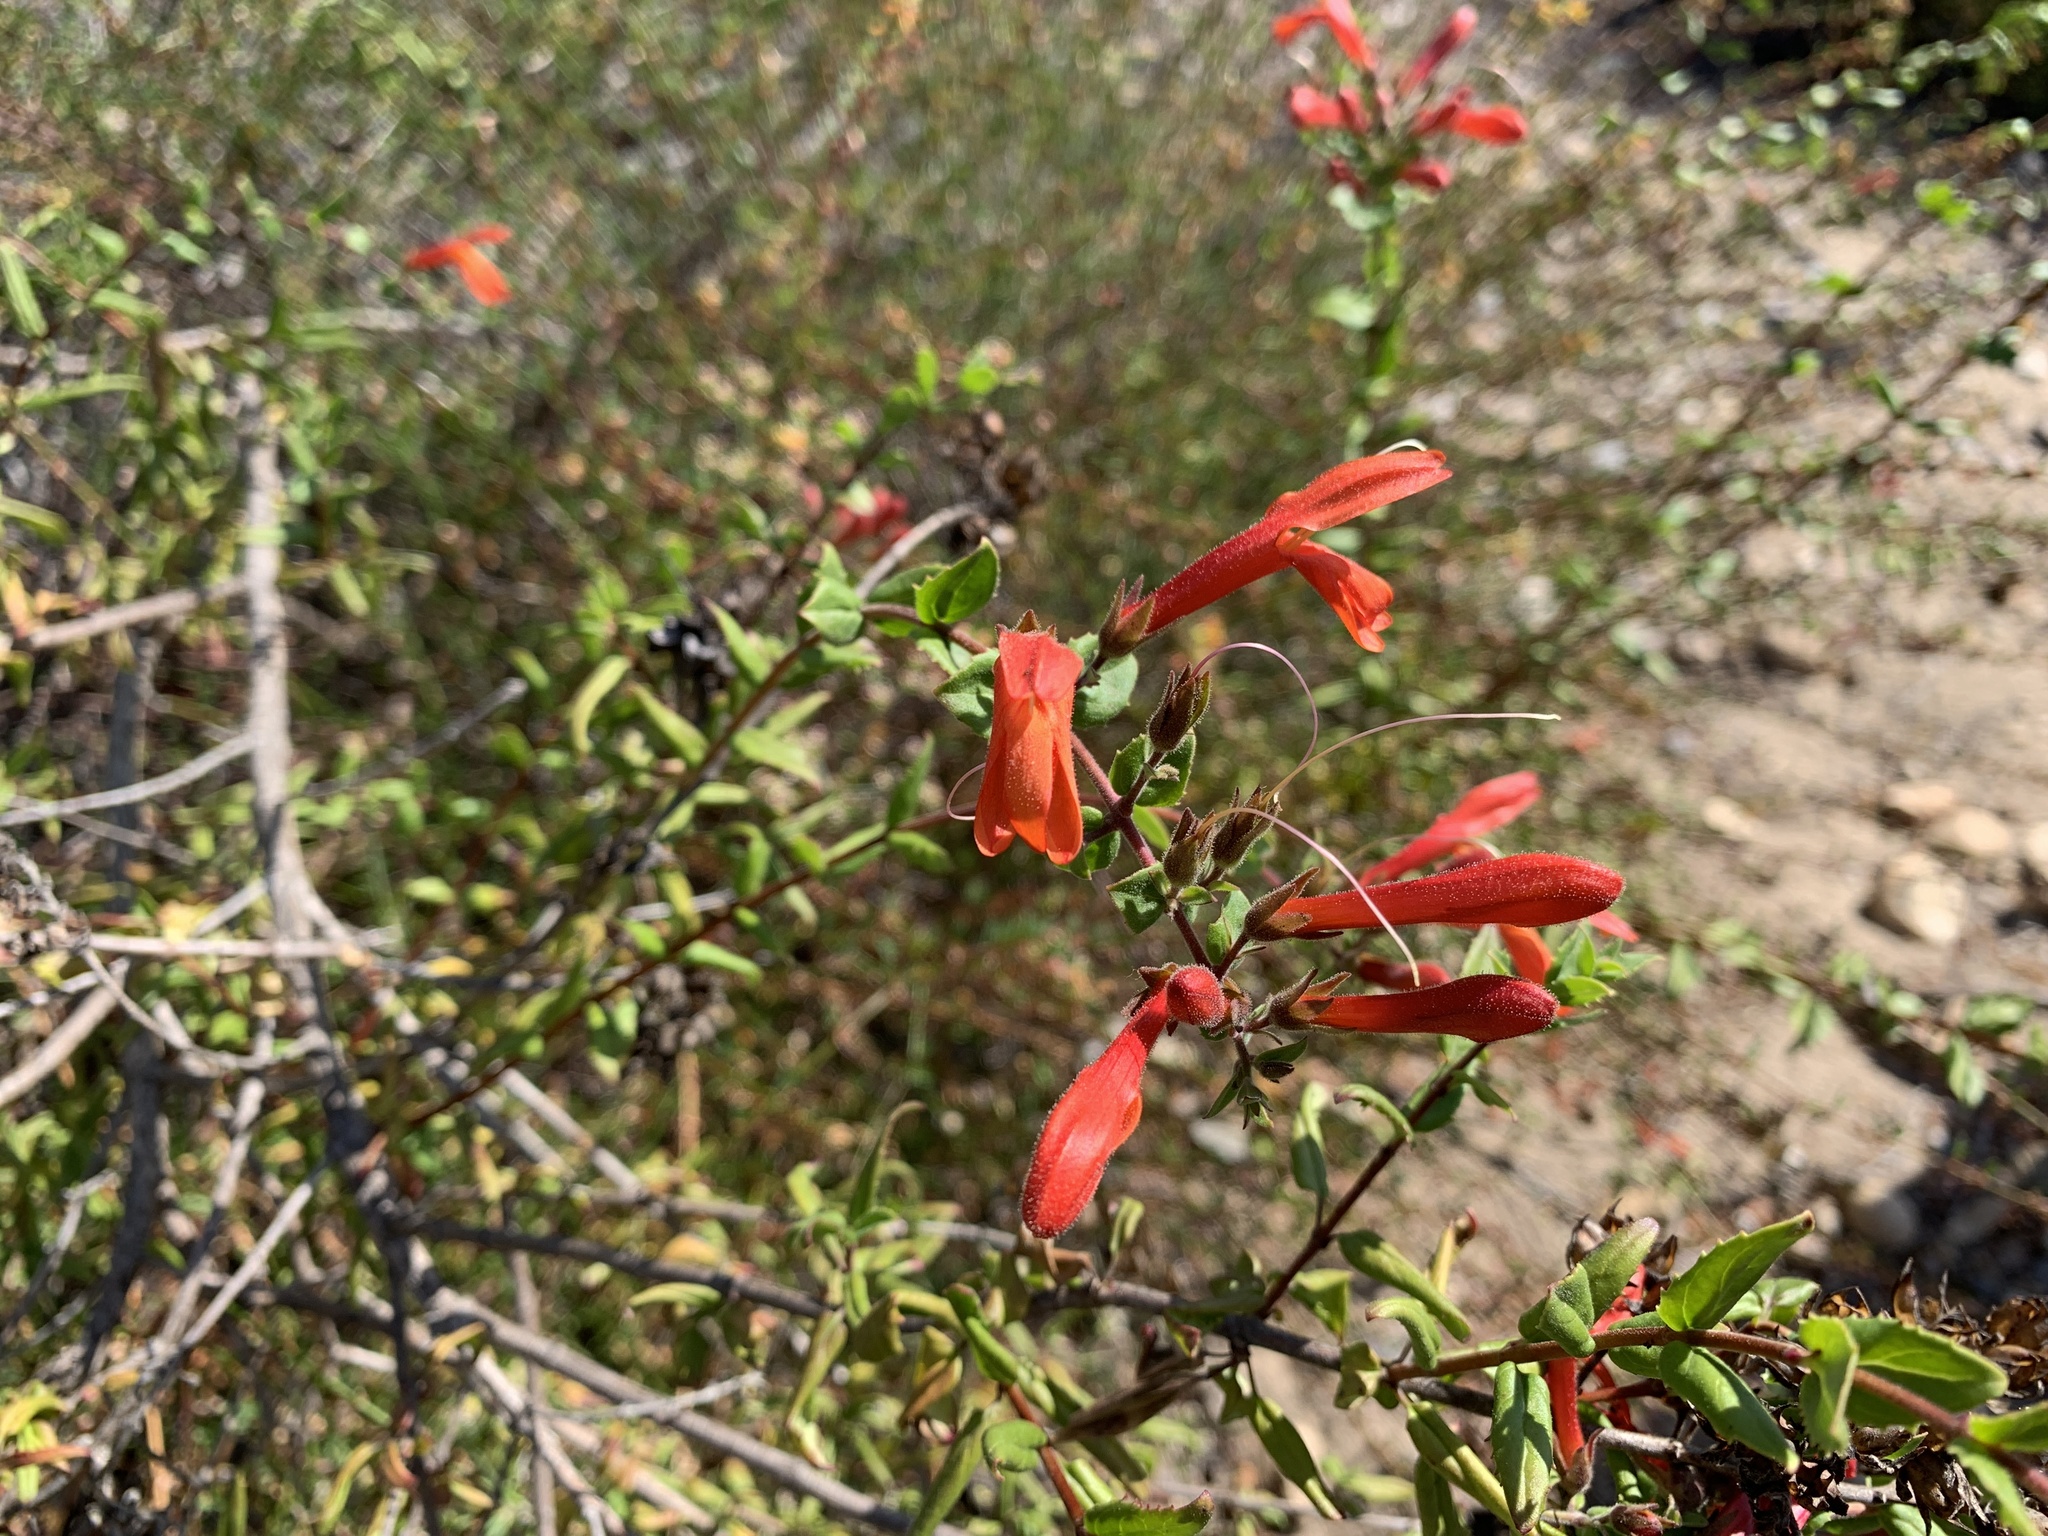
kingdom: Plantae
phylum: Tracheophyta
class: Magnoliopsida
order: Lamiales
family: Plantaginaceae
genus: Keckiella
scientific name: Keckiella cordifolia
